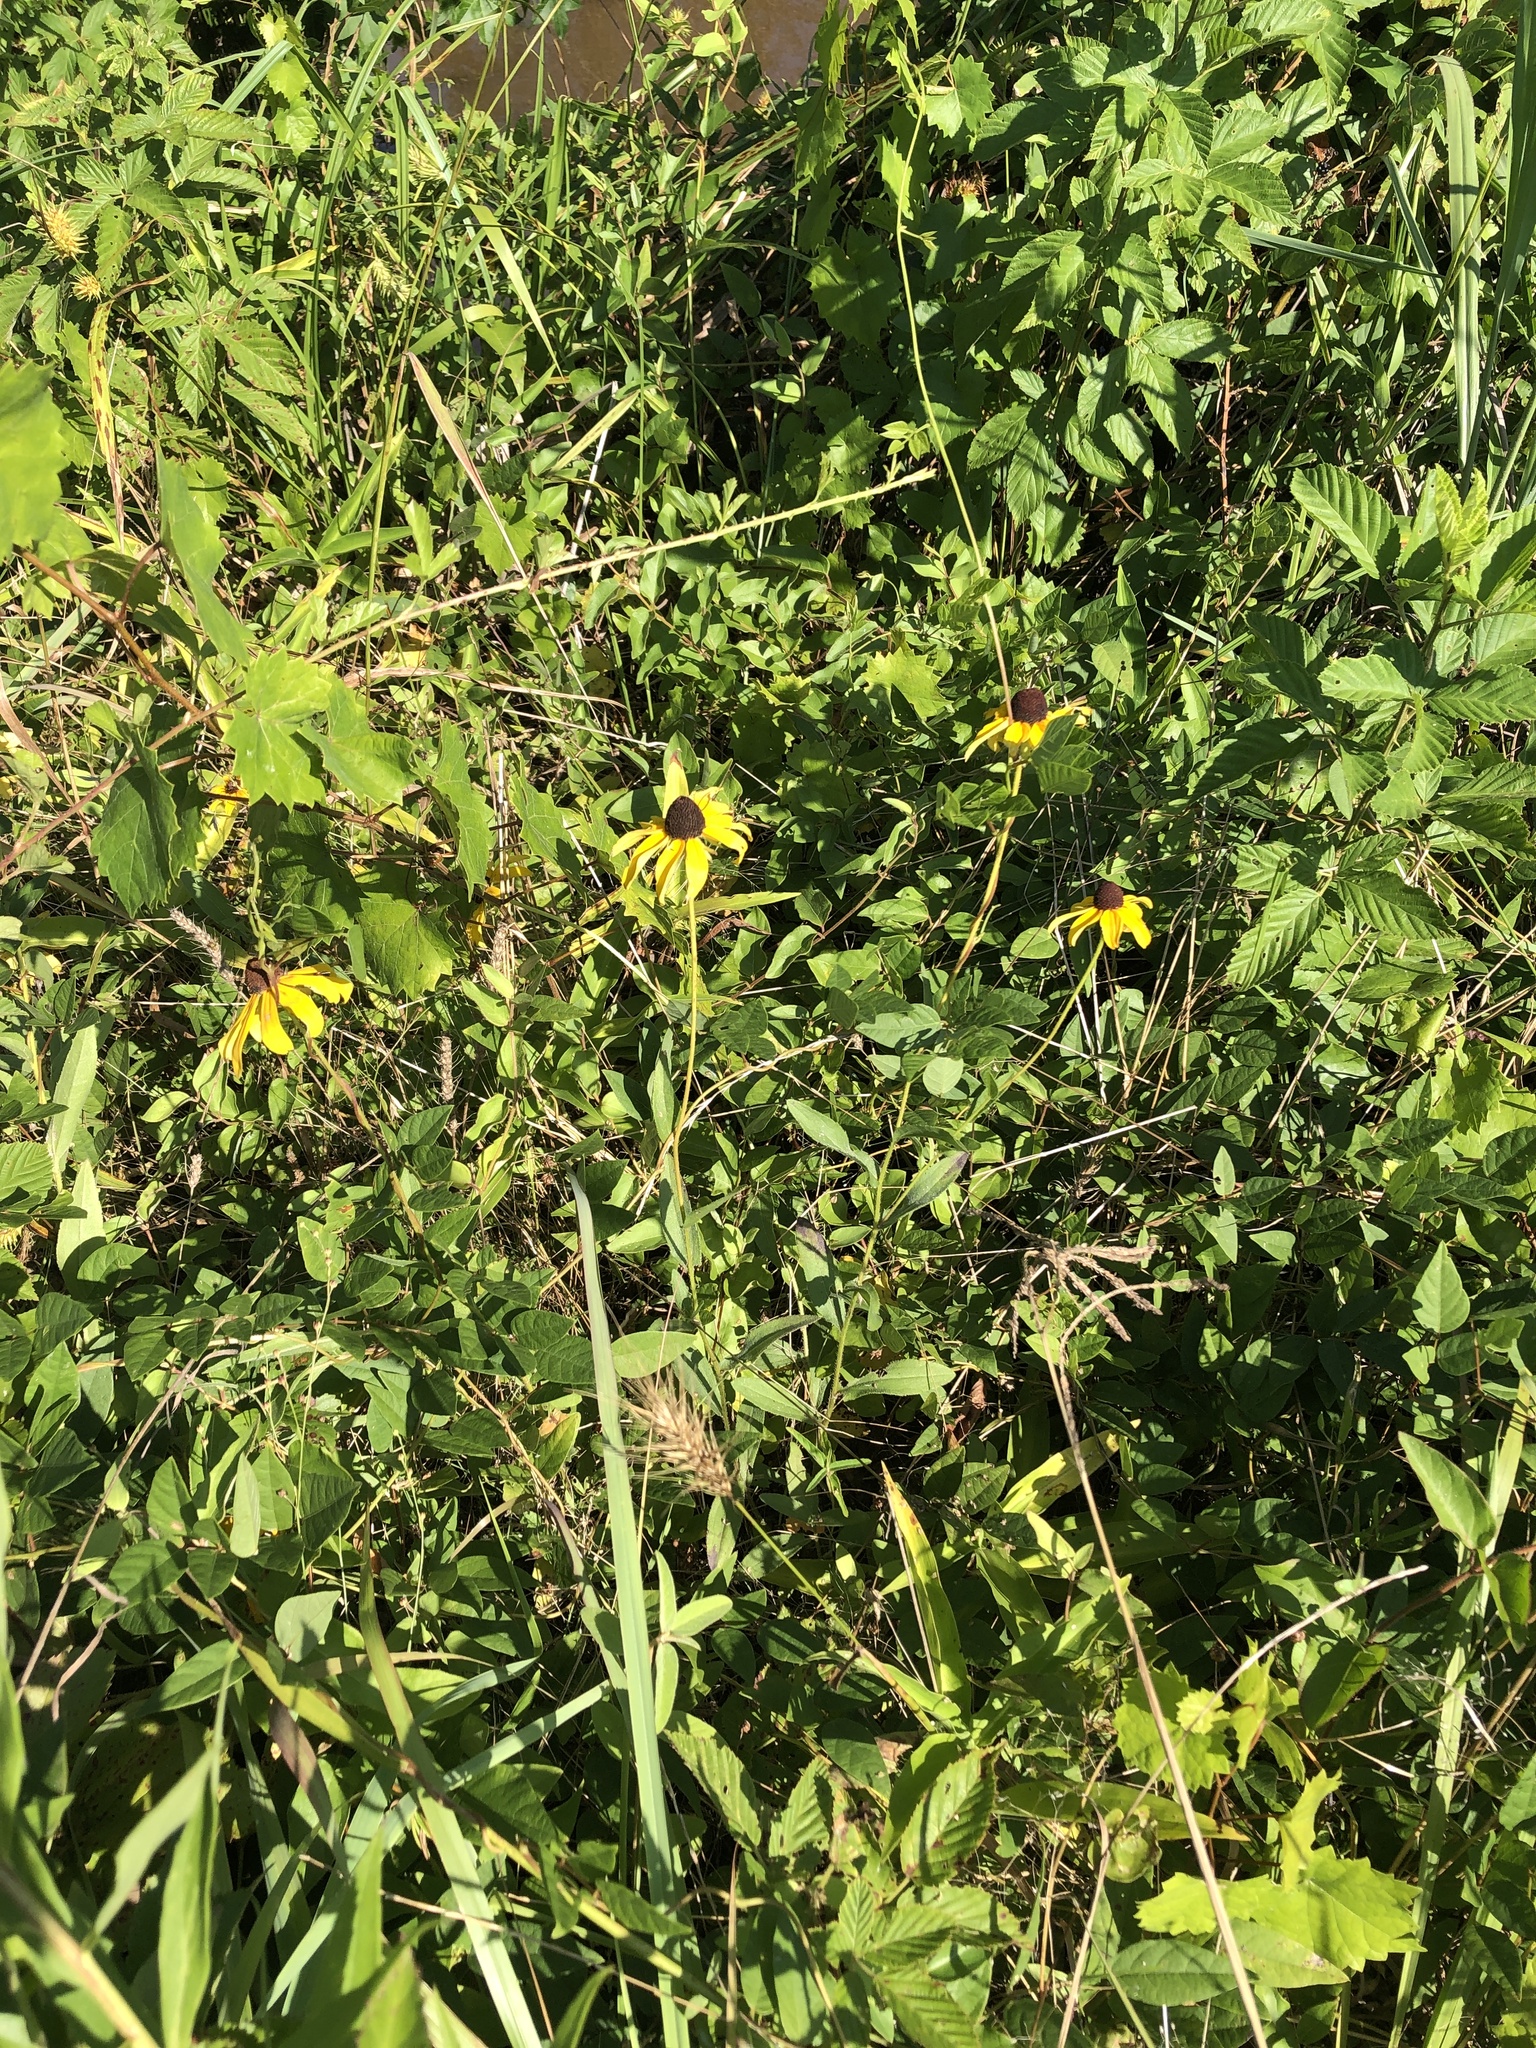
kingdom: Plantae
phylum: Tracheophyta
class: Magnoliopsida
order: Asterales
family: Asteraceae
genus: Rudbeckia
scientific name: Rudbeckia hirta
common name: Black-eyed-susan
